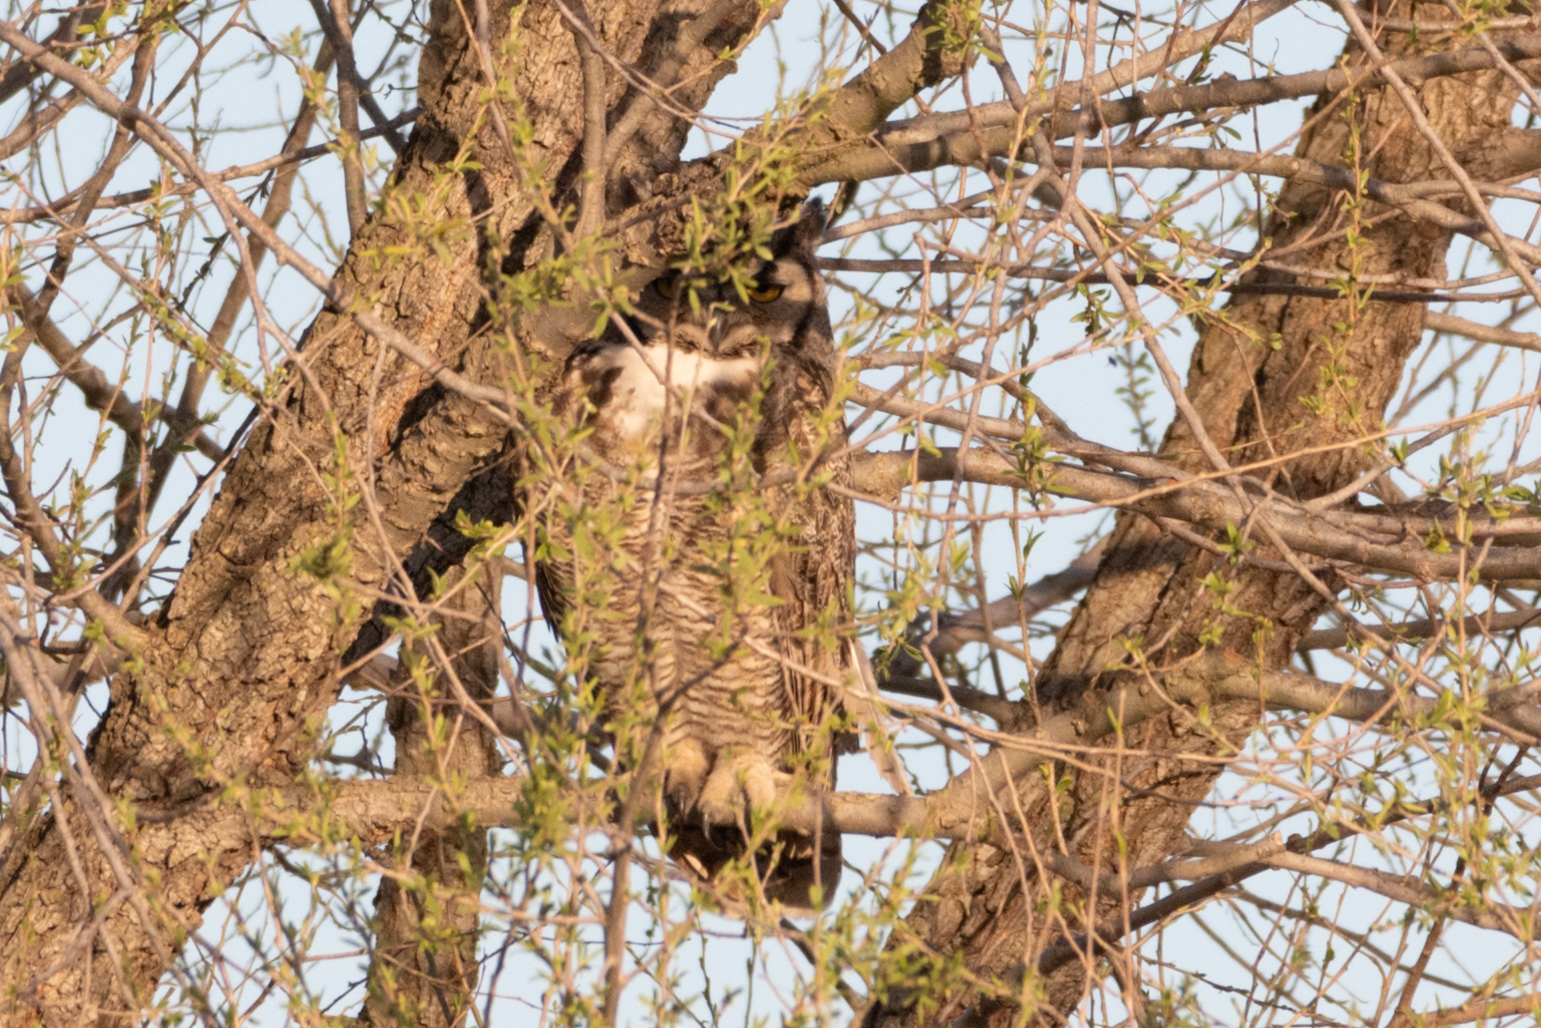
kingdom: Animalia
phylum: Chordata
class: Aves
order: Strigiformes
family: Strigidae
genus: Bubo
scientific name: Bubo virginianus
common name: Great horned owl
